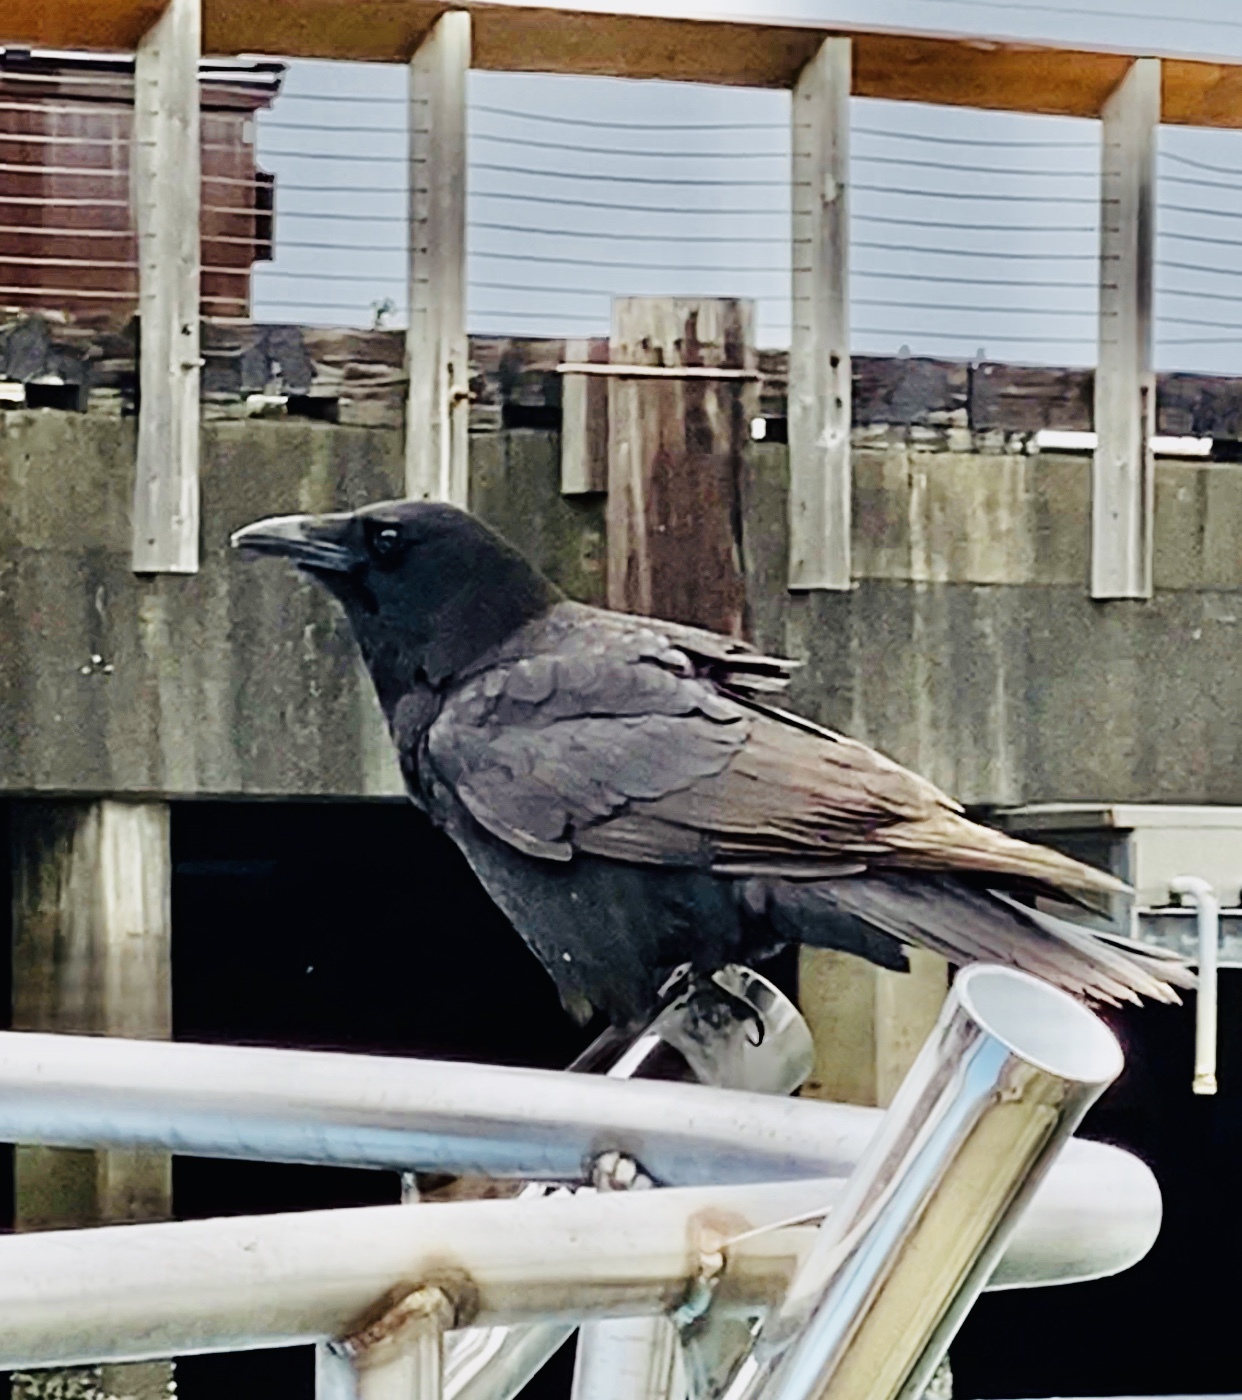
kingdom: Animalia
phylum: Chordata
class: Aves
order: Passeriformes
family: Corvidae
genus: Corvus
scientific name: Corvus brachyrhynchos
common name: American crow
